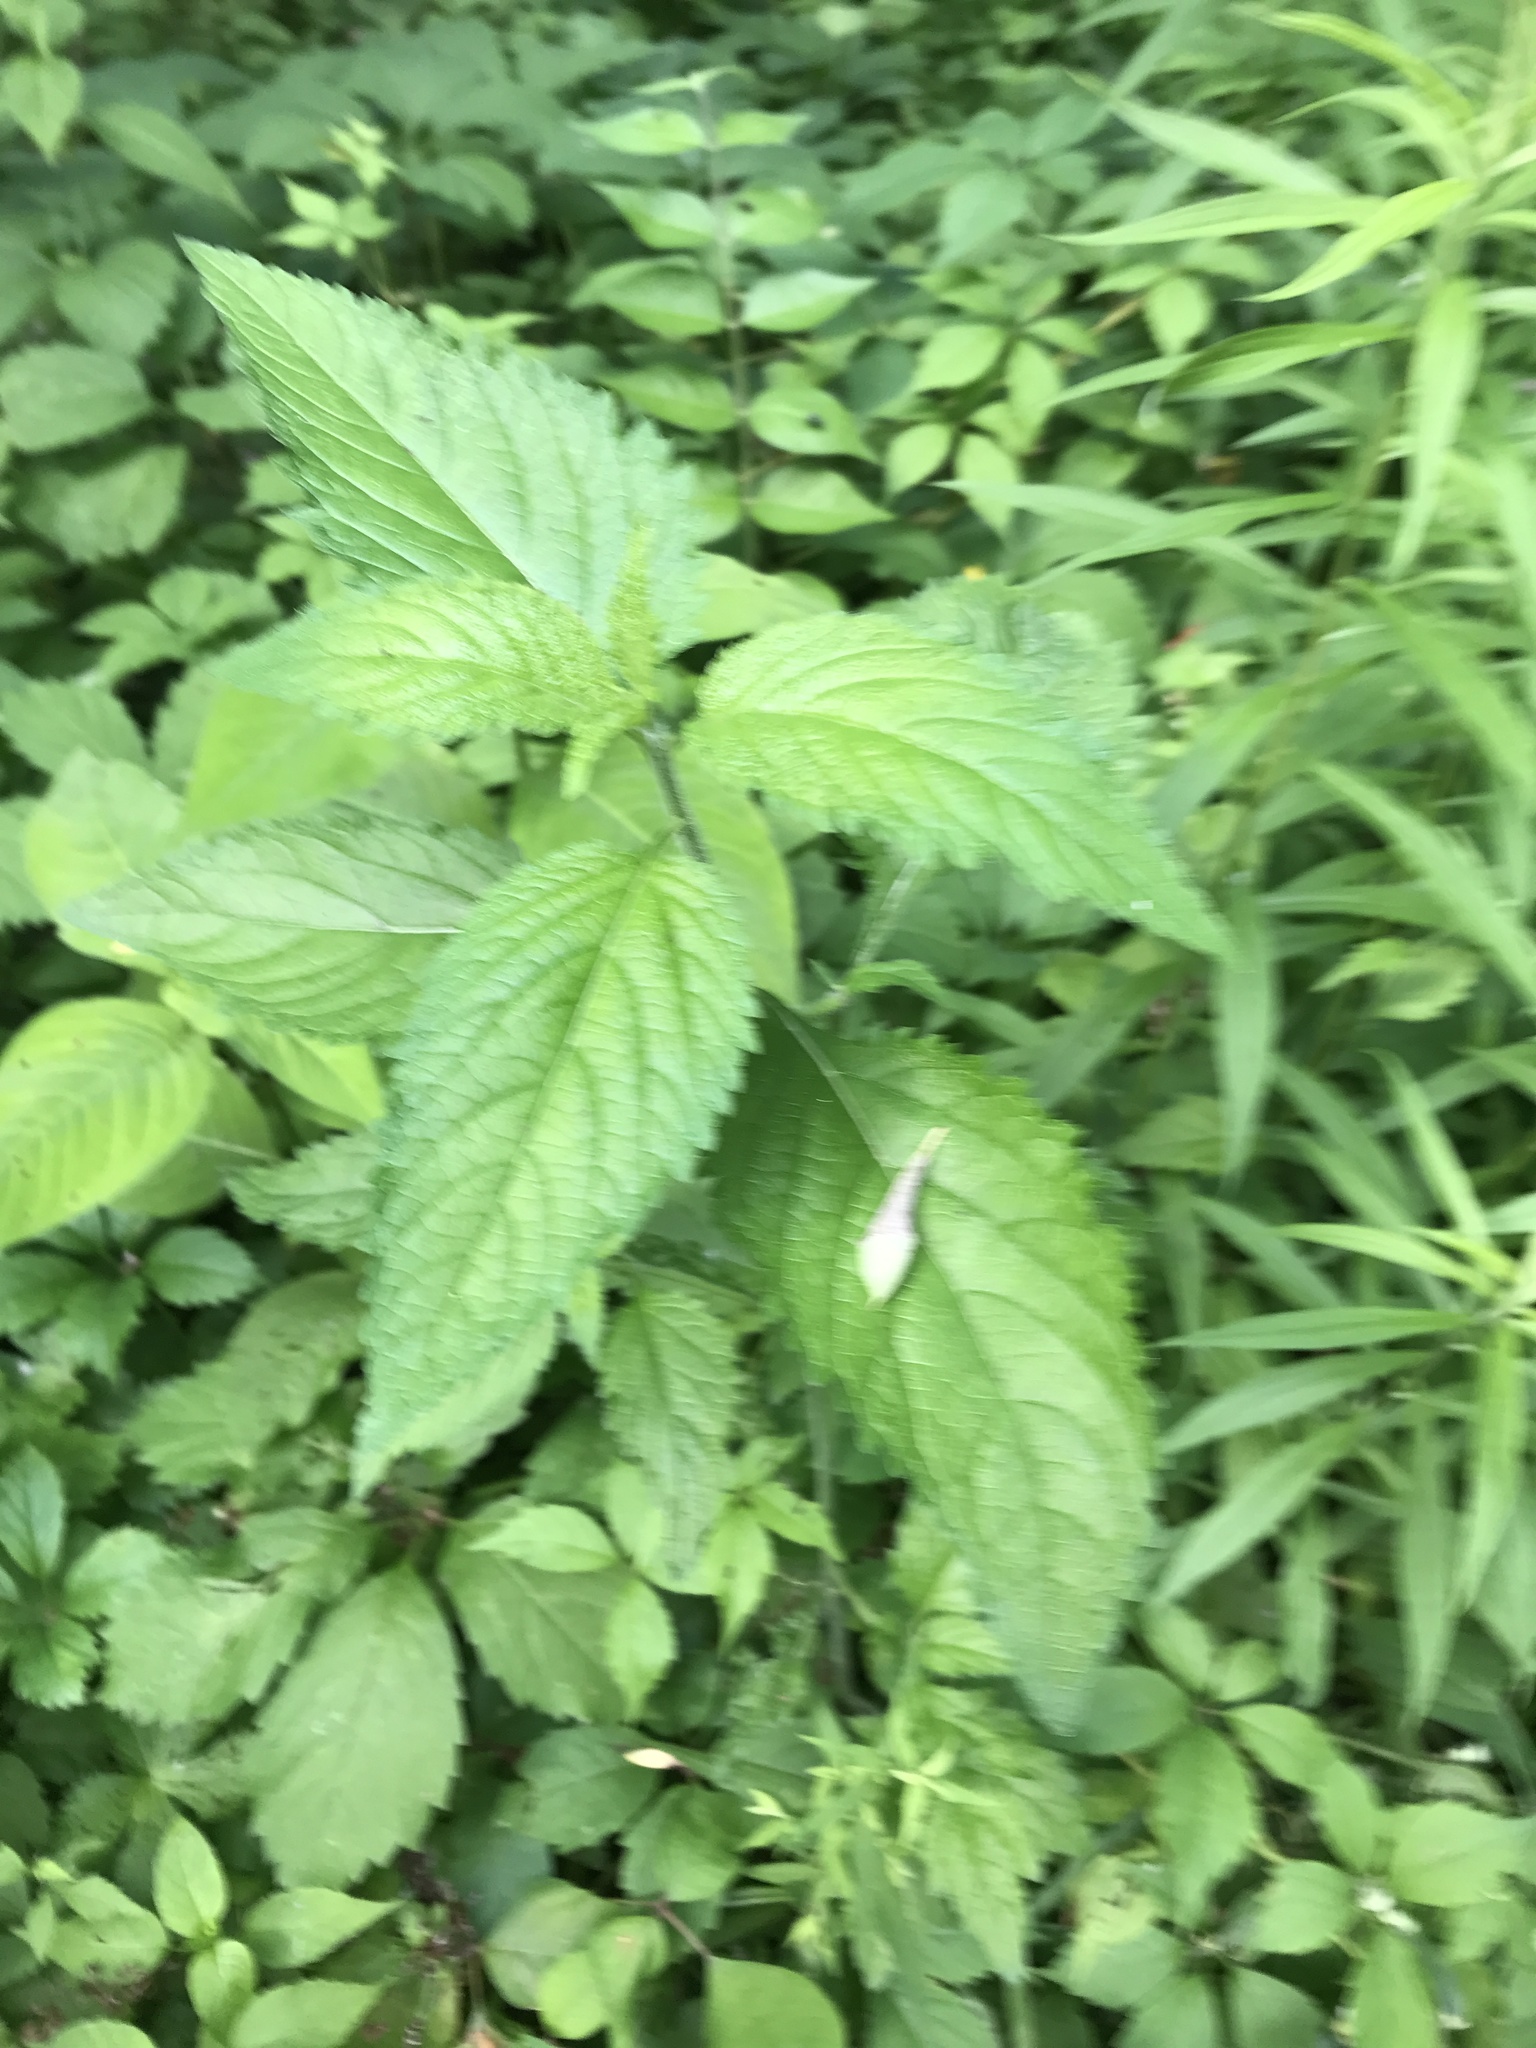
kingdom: Plantae
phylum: Tracheophyta
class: Magnoliopsida
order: Lamiales
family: Verbenaceae
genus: Verbena
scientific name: Verbena urticifolia
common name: Nettle-leaved vervain
